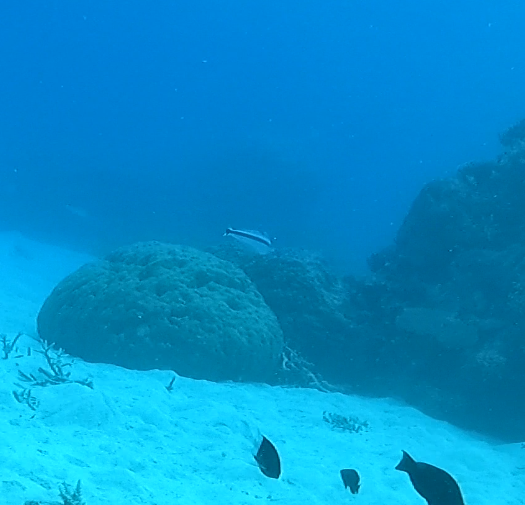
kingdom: Animalia
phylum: Chordata
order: Perciformes
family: Malacanthidae
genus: Malacanthus
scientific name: Malacanthus latovittatus
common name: Blue blanquillo
